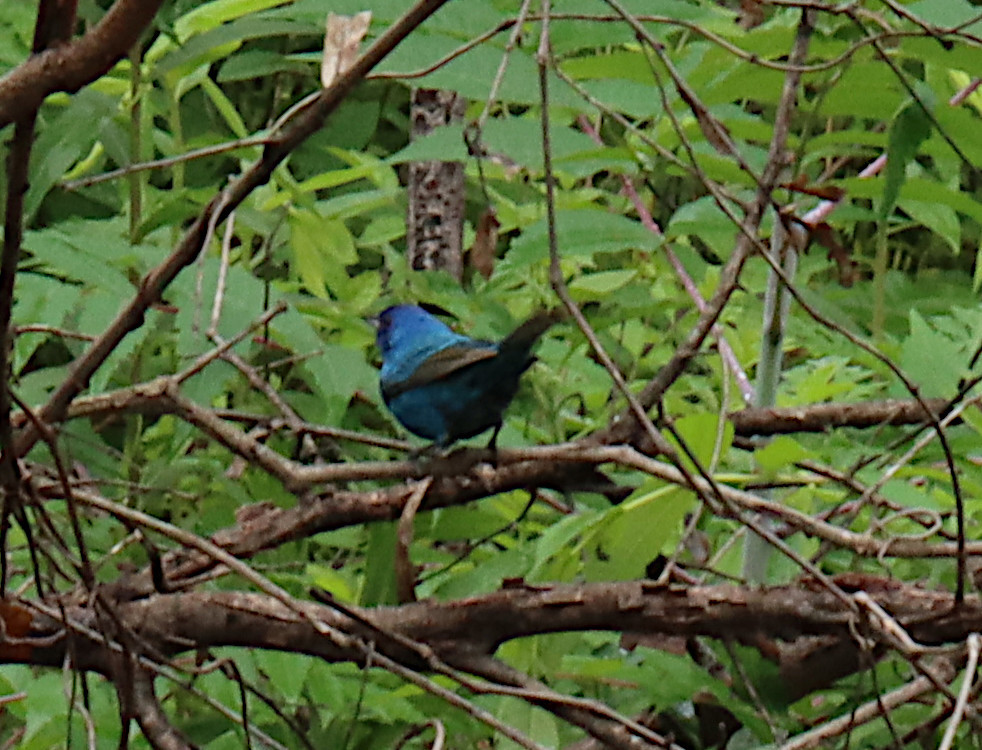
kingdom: Animalia
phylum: Chordata
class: Aves
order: Passeriformes
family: Cardinalidae
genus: Passerina
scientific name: Passerina cyanea
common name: Indigo bunting
